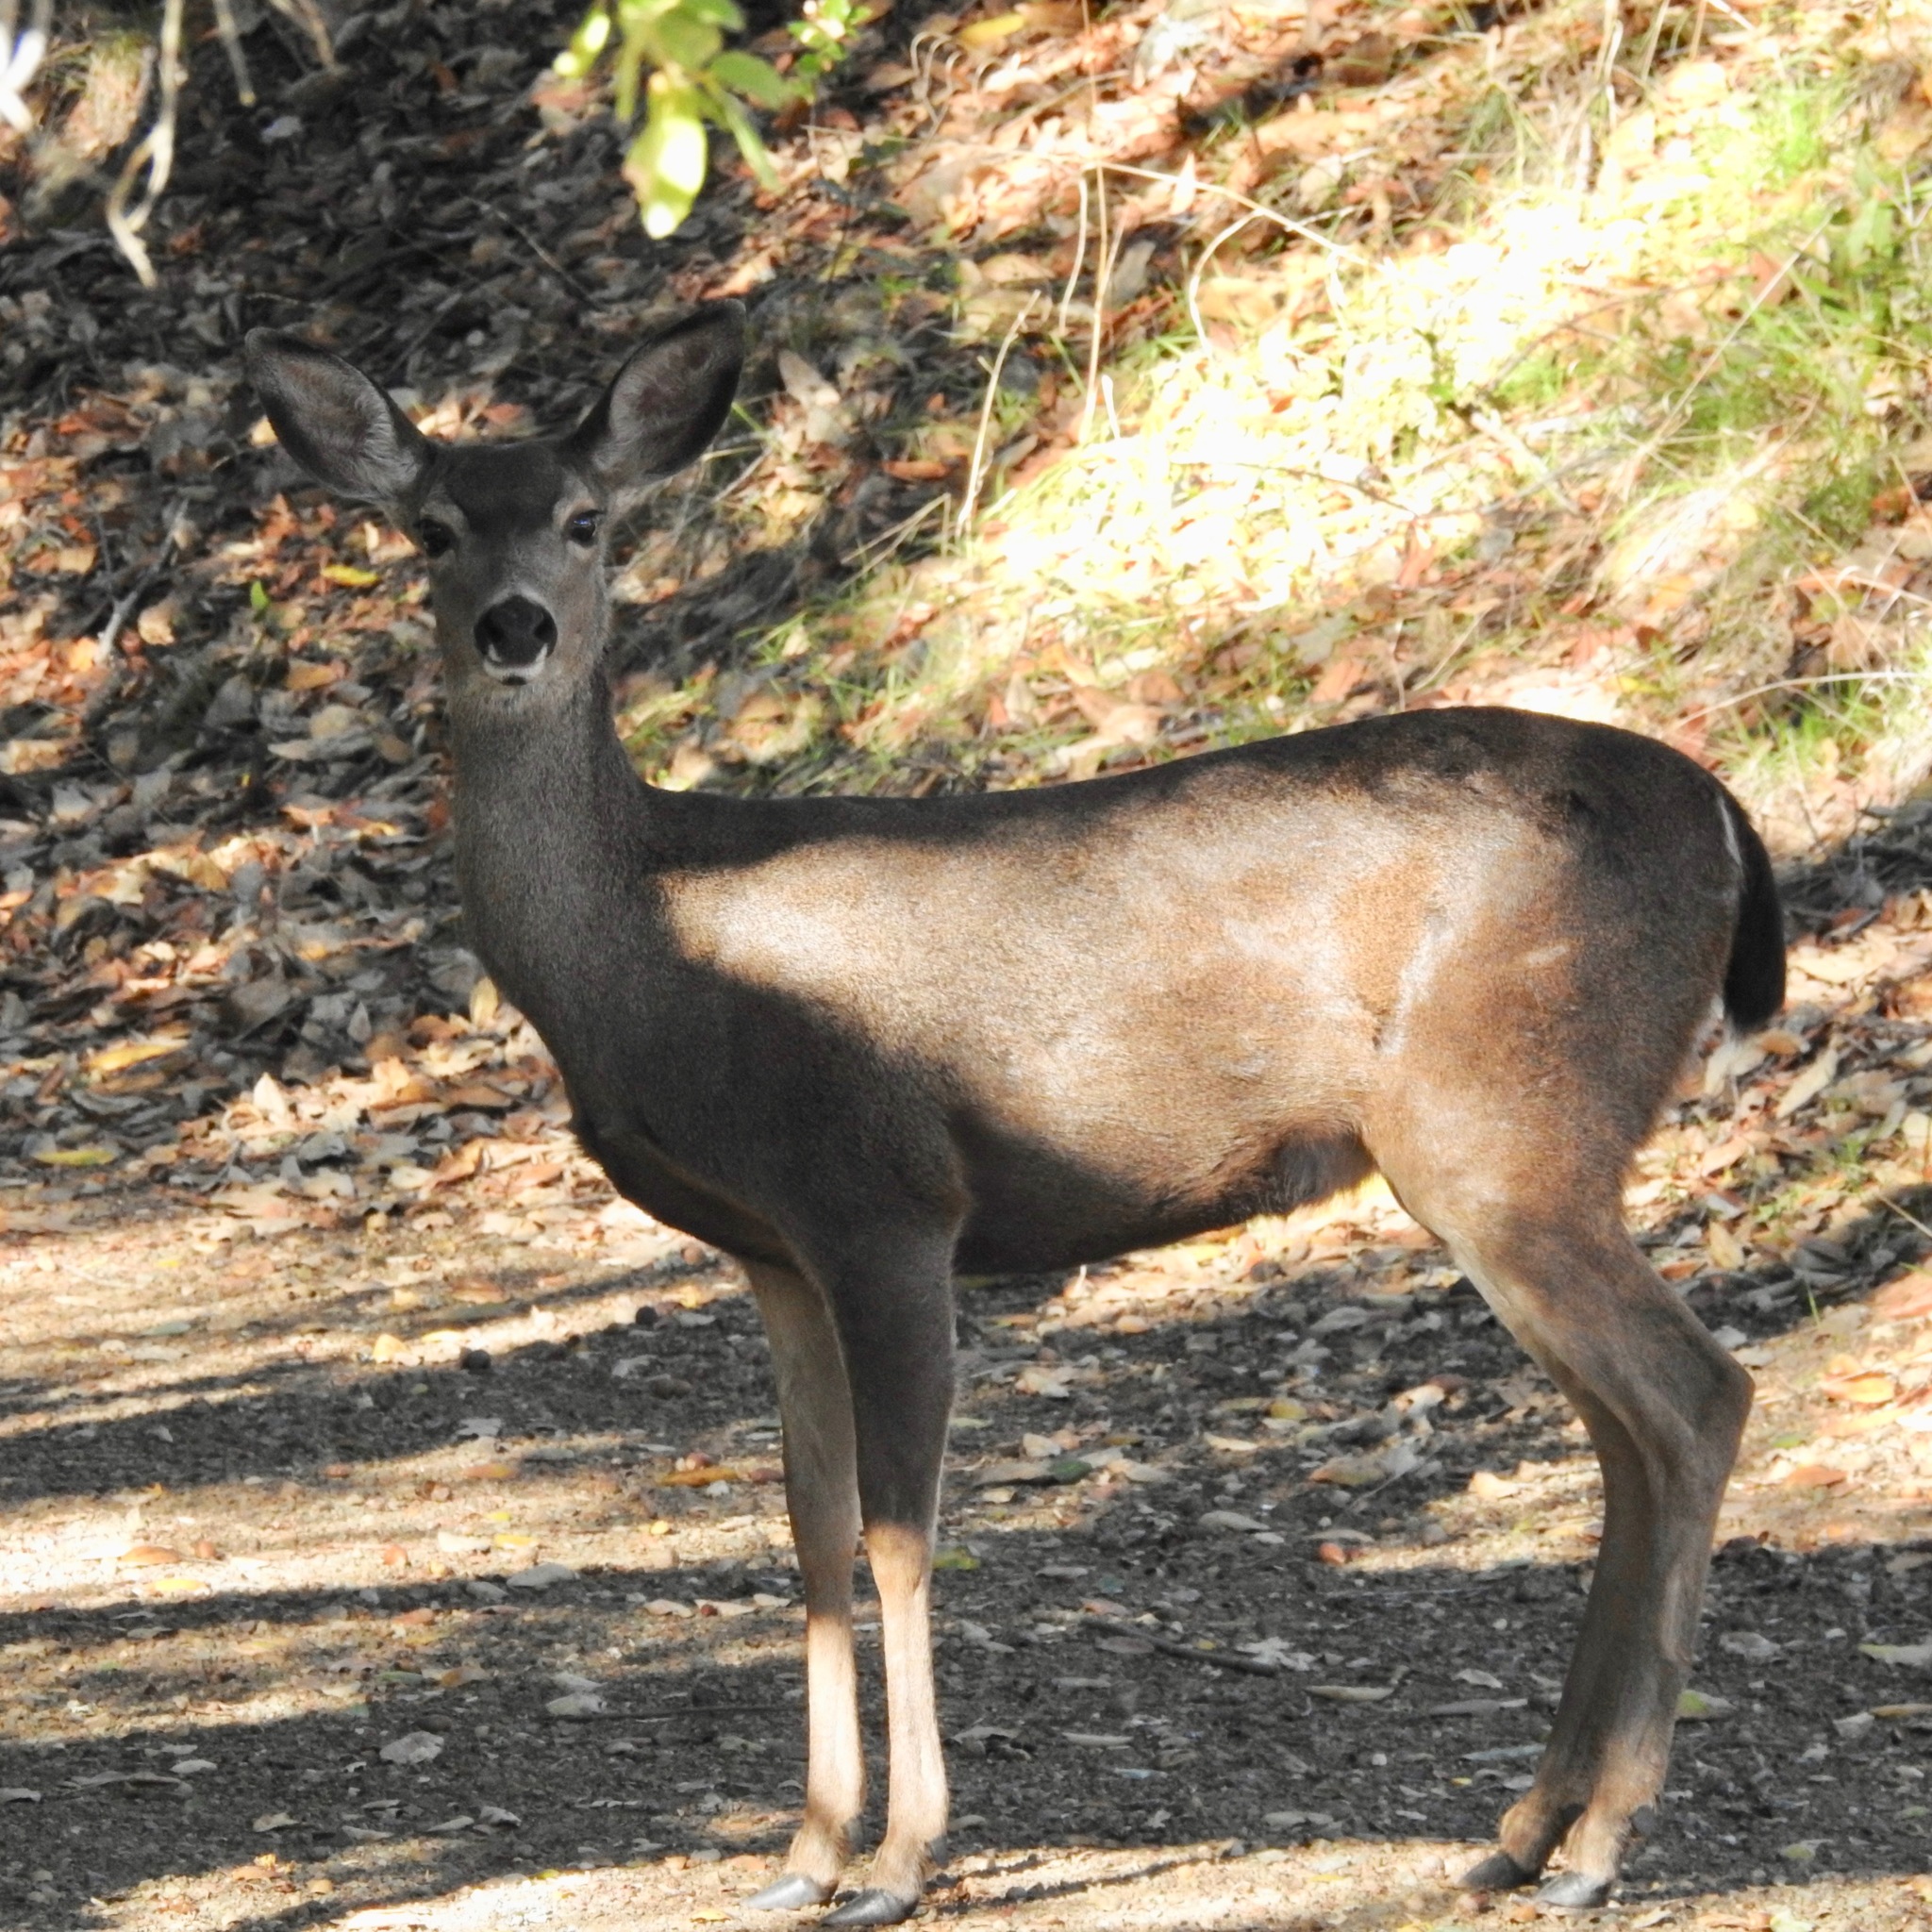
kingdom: Animalia
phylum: Chordata
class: Mammalia
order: Artiodactyla
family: Cervidae
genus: Odocoileus
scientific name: Odocoileus hemionus
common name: Mule deer
